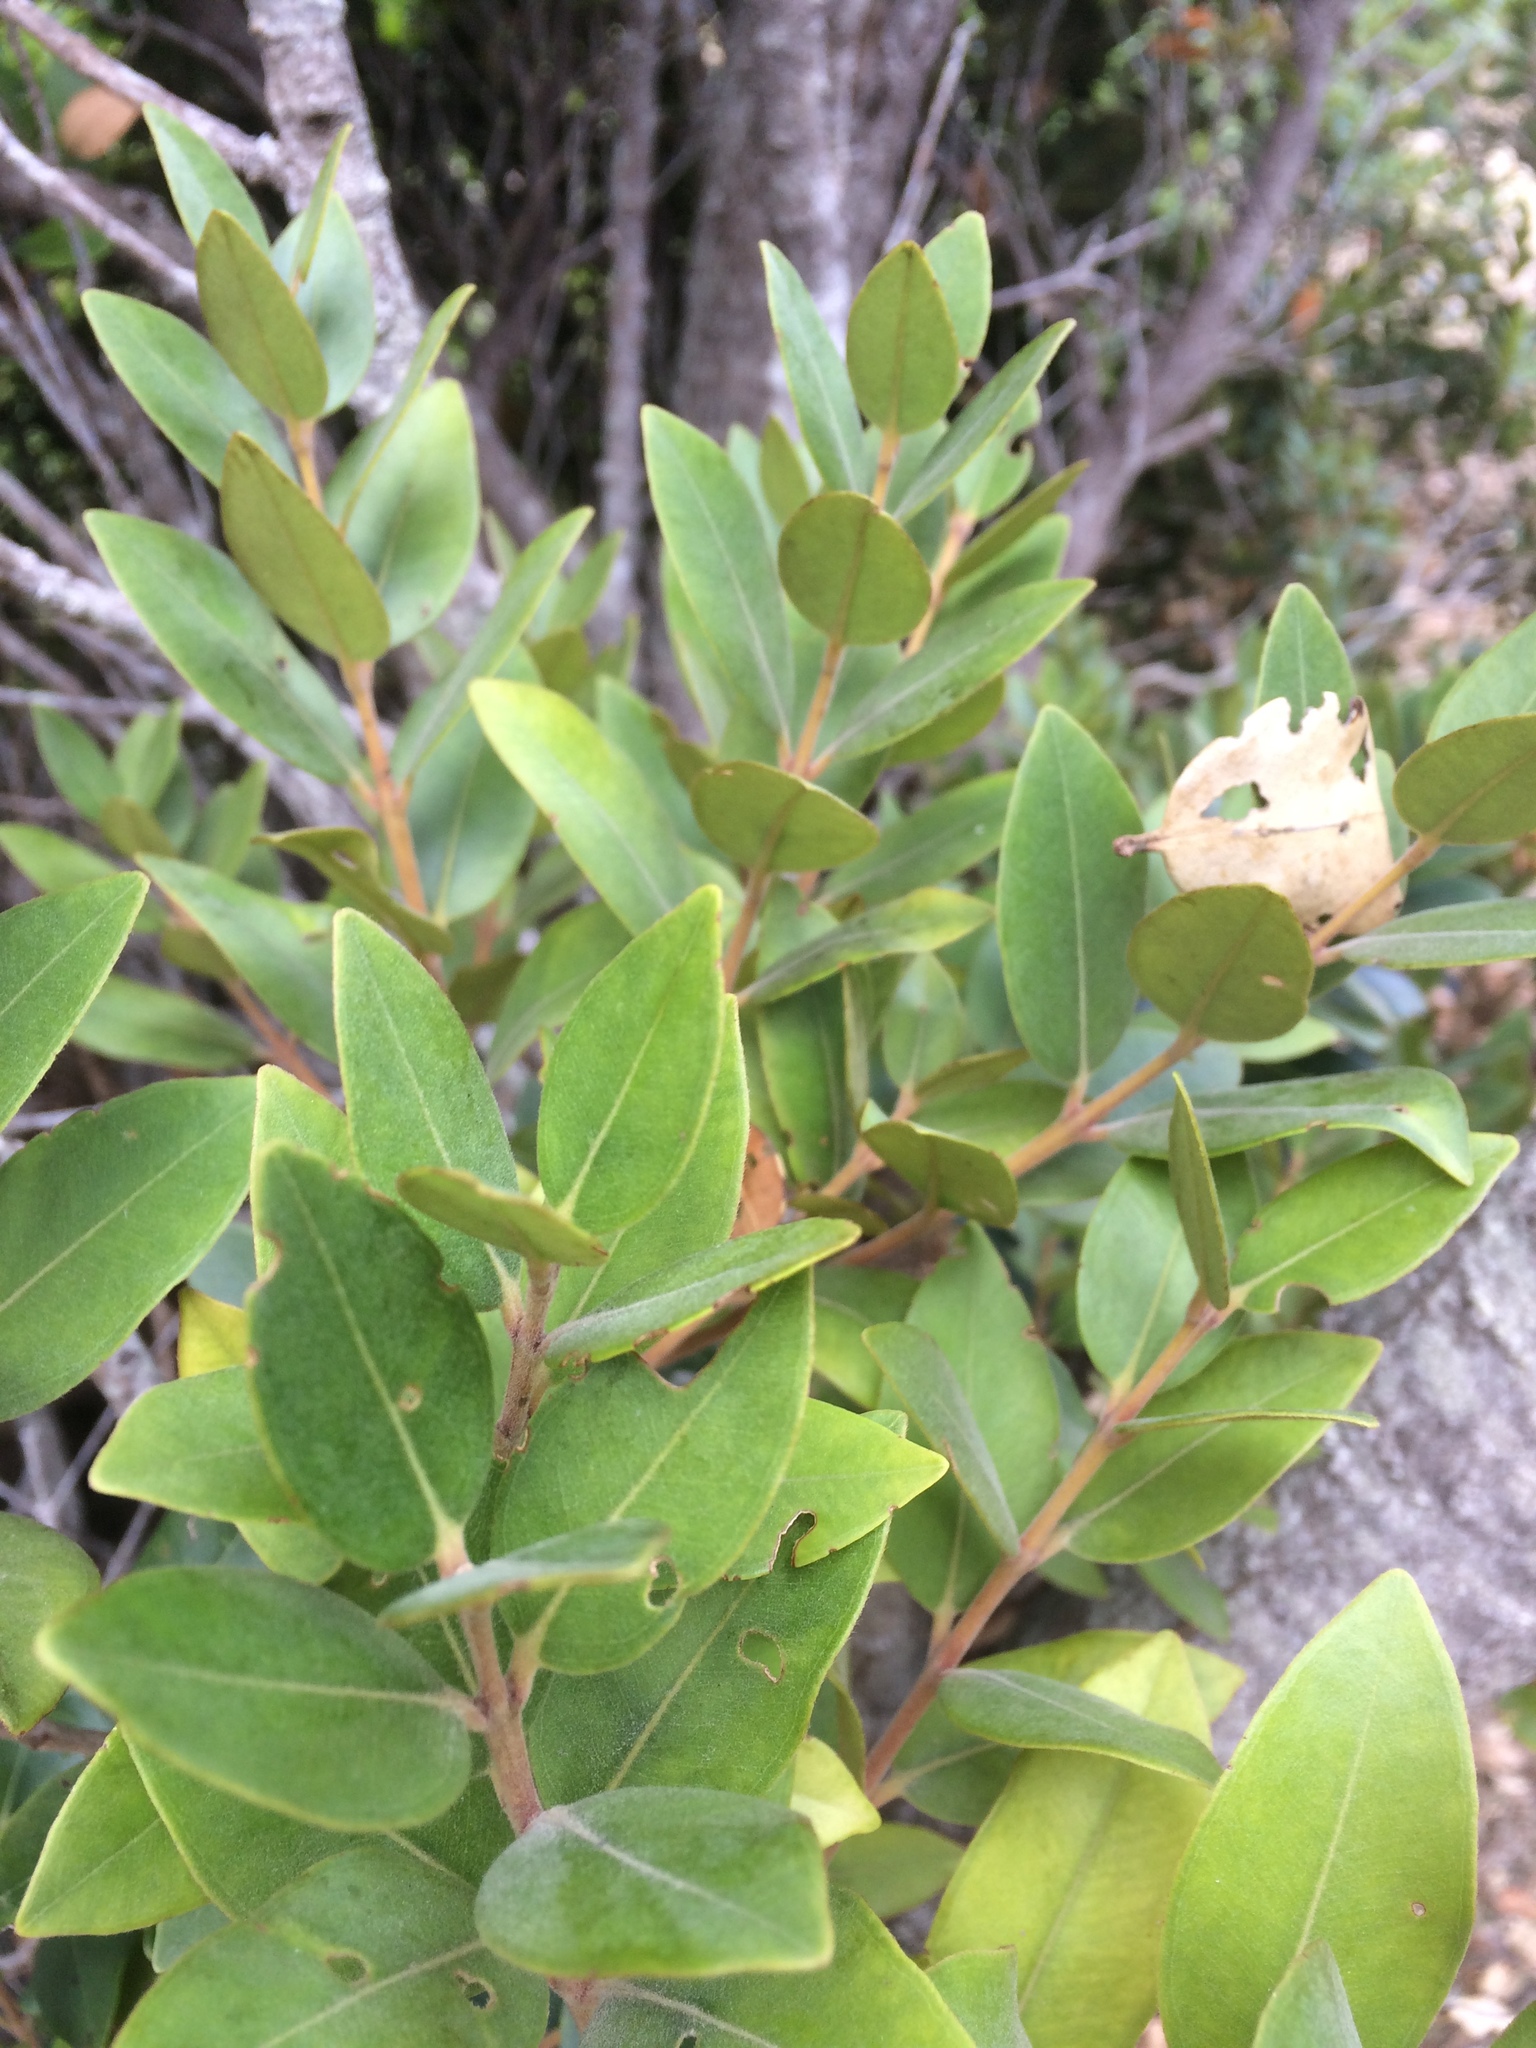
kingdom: Plantae
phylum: Tracheophyta
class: Magnoliopsida
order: Myrtales
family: Myrtaceae
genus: Metrosideros
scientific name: Metrosideros subtomentosa
